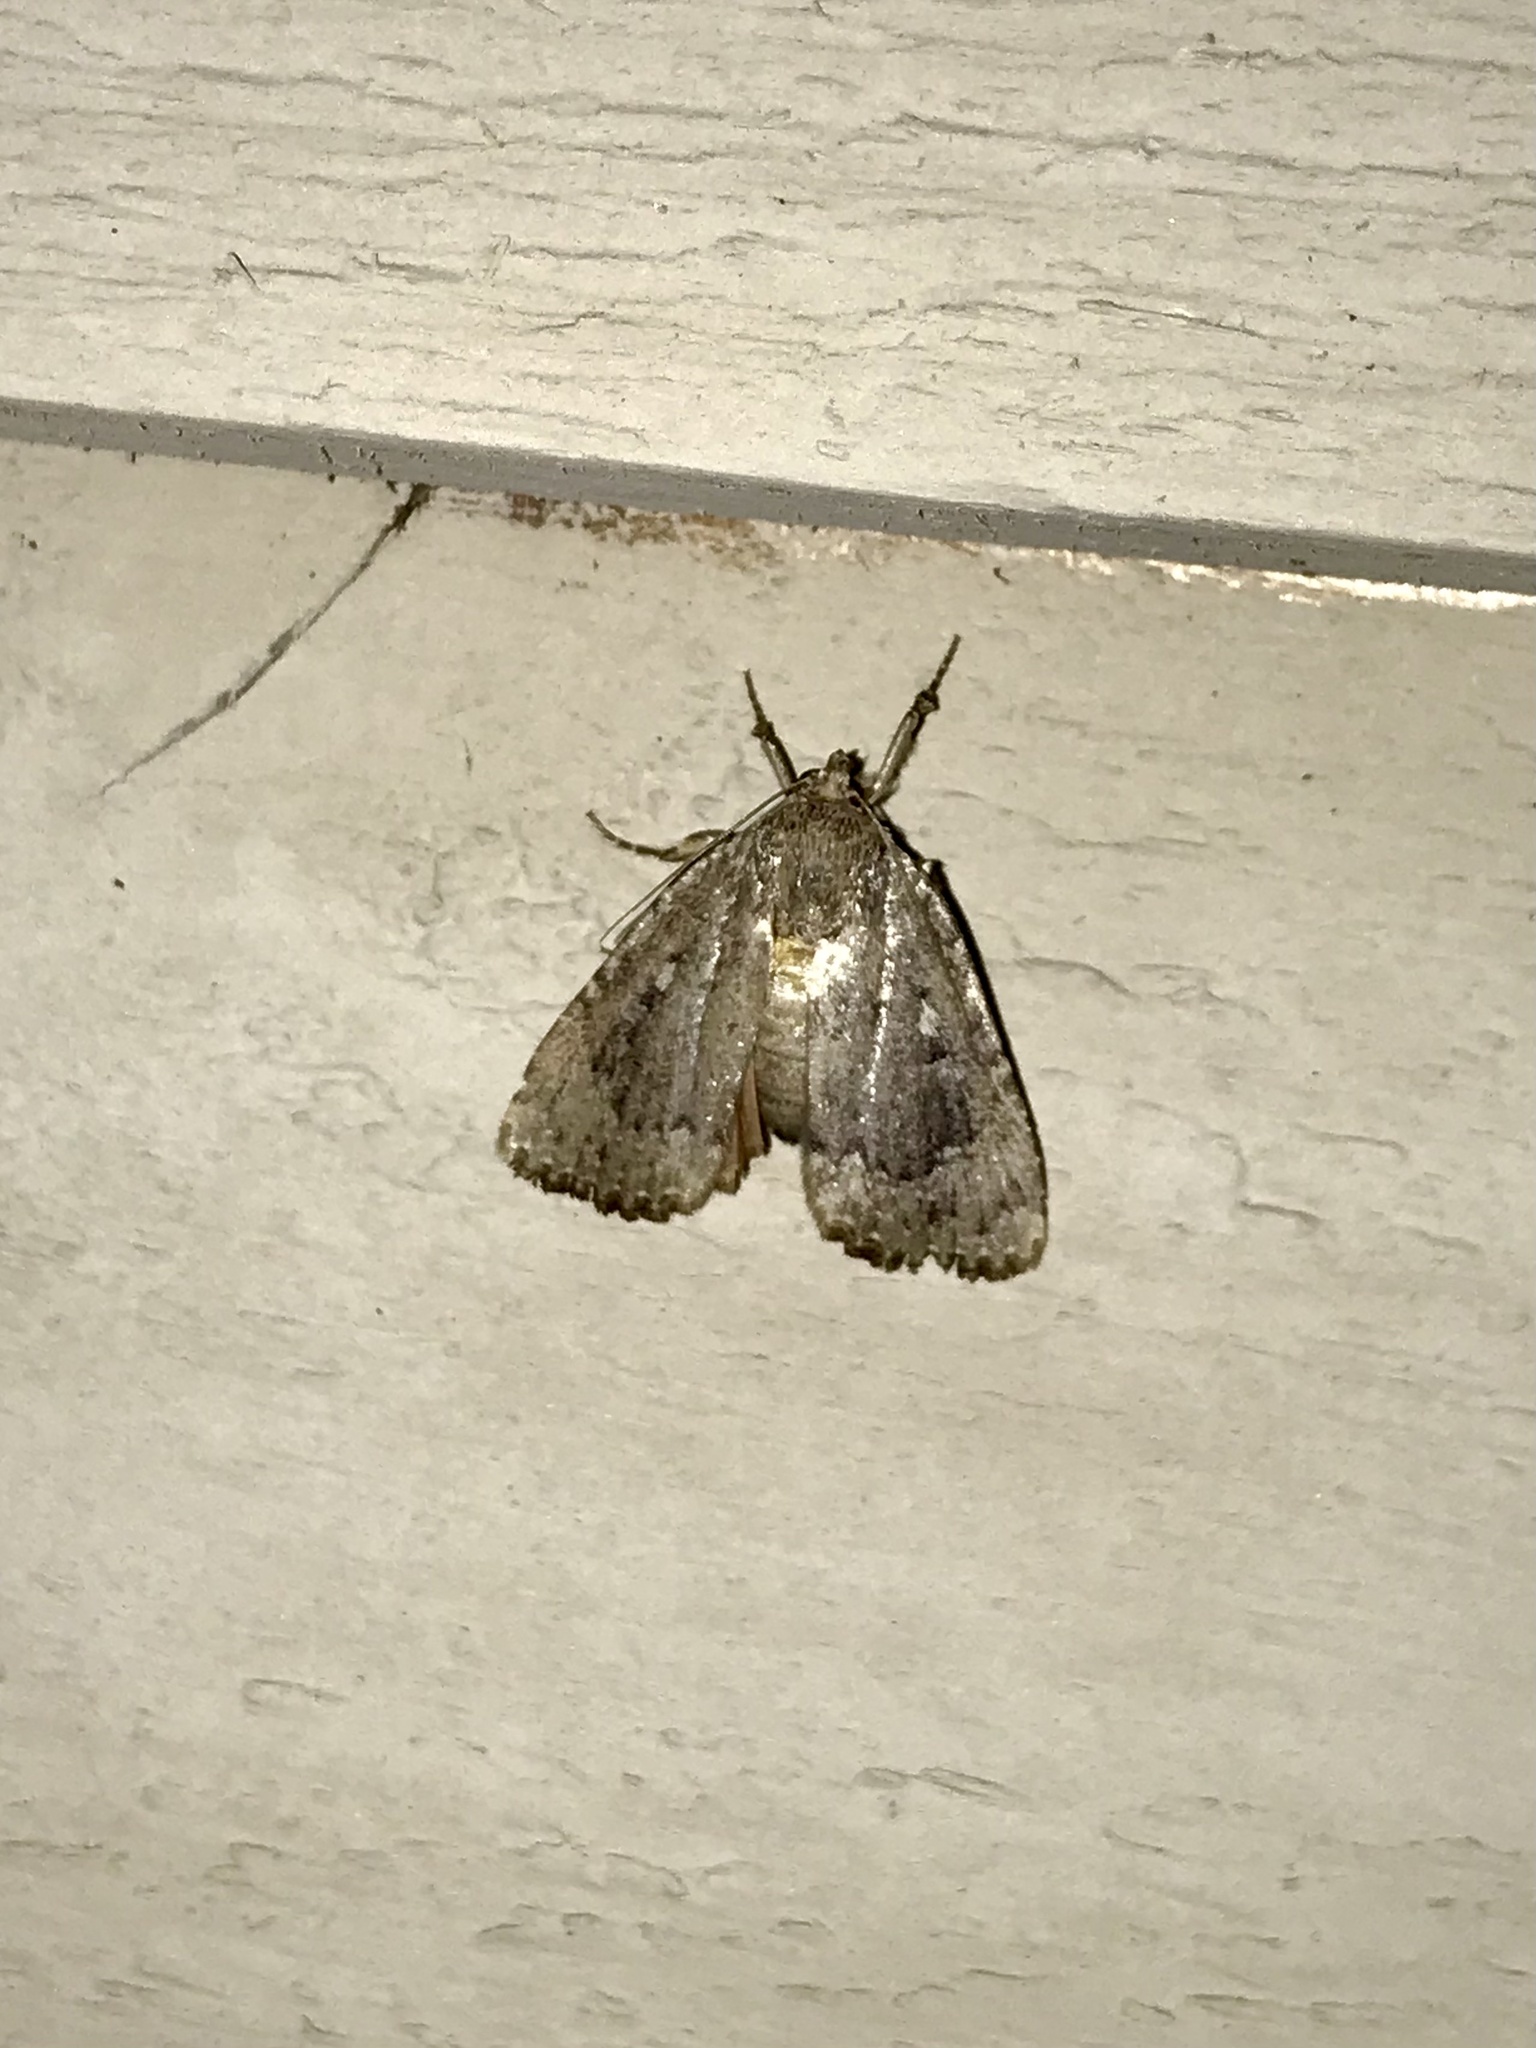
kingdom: Animalia
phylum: Arthropoda
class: Insecta
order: Lepidoptera
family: Noctuidae
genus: Amphipyra
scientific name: Amphipyra pyramidoides
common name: American copper underwing
